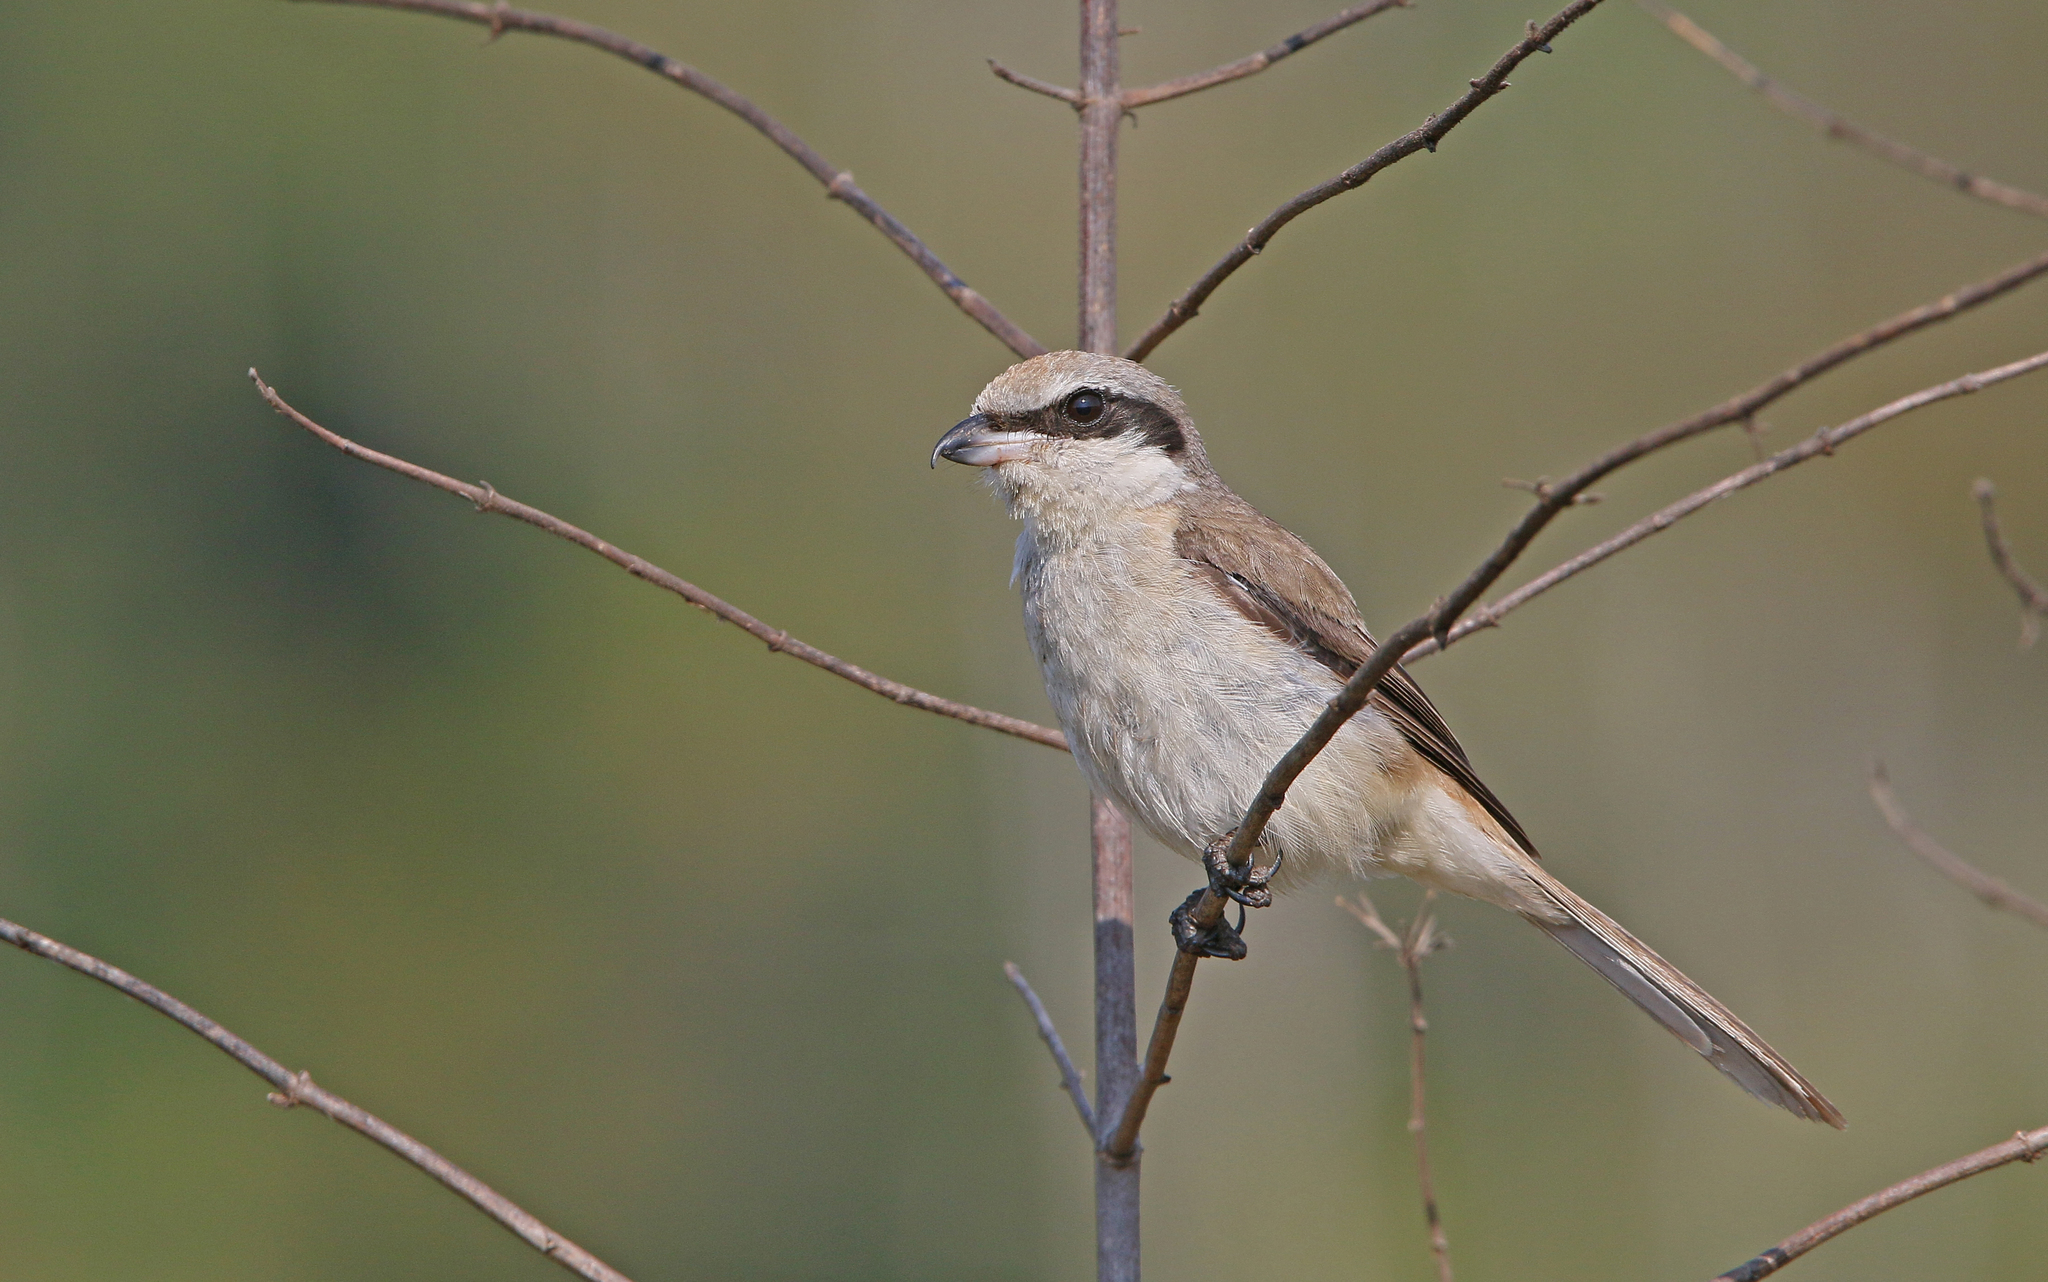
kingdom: Animalia
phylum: Chordata
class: Aves
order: Passeriformes
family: Laniidae
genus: Lanius
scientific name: Lanius cristatus
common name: Brown shrike
